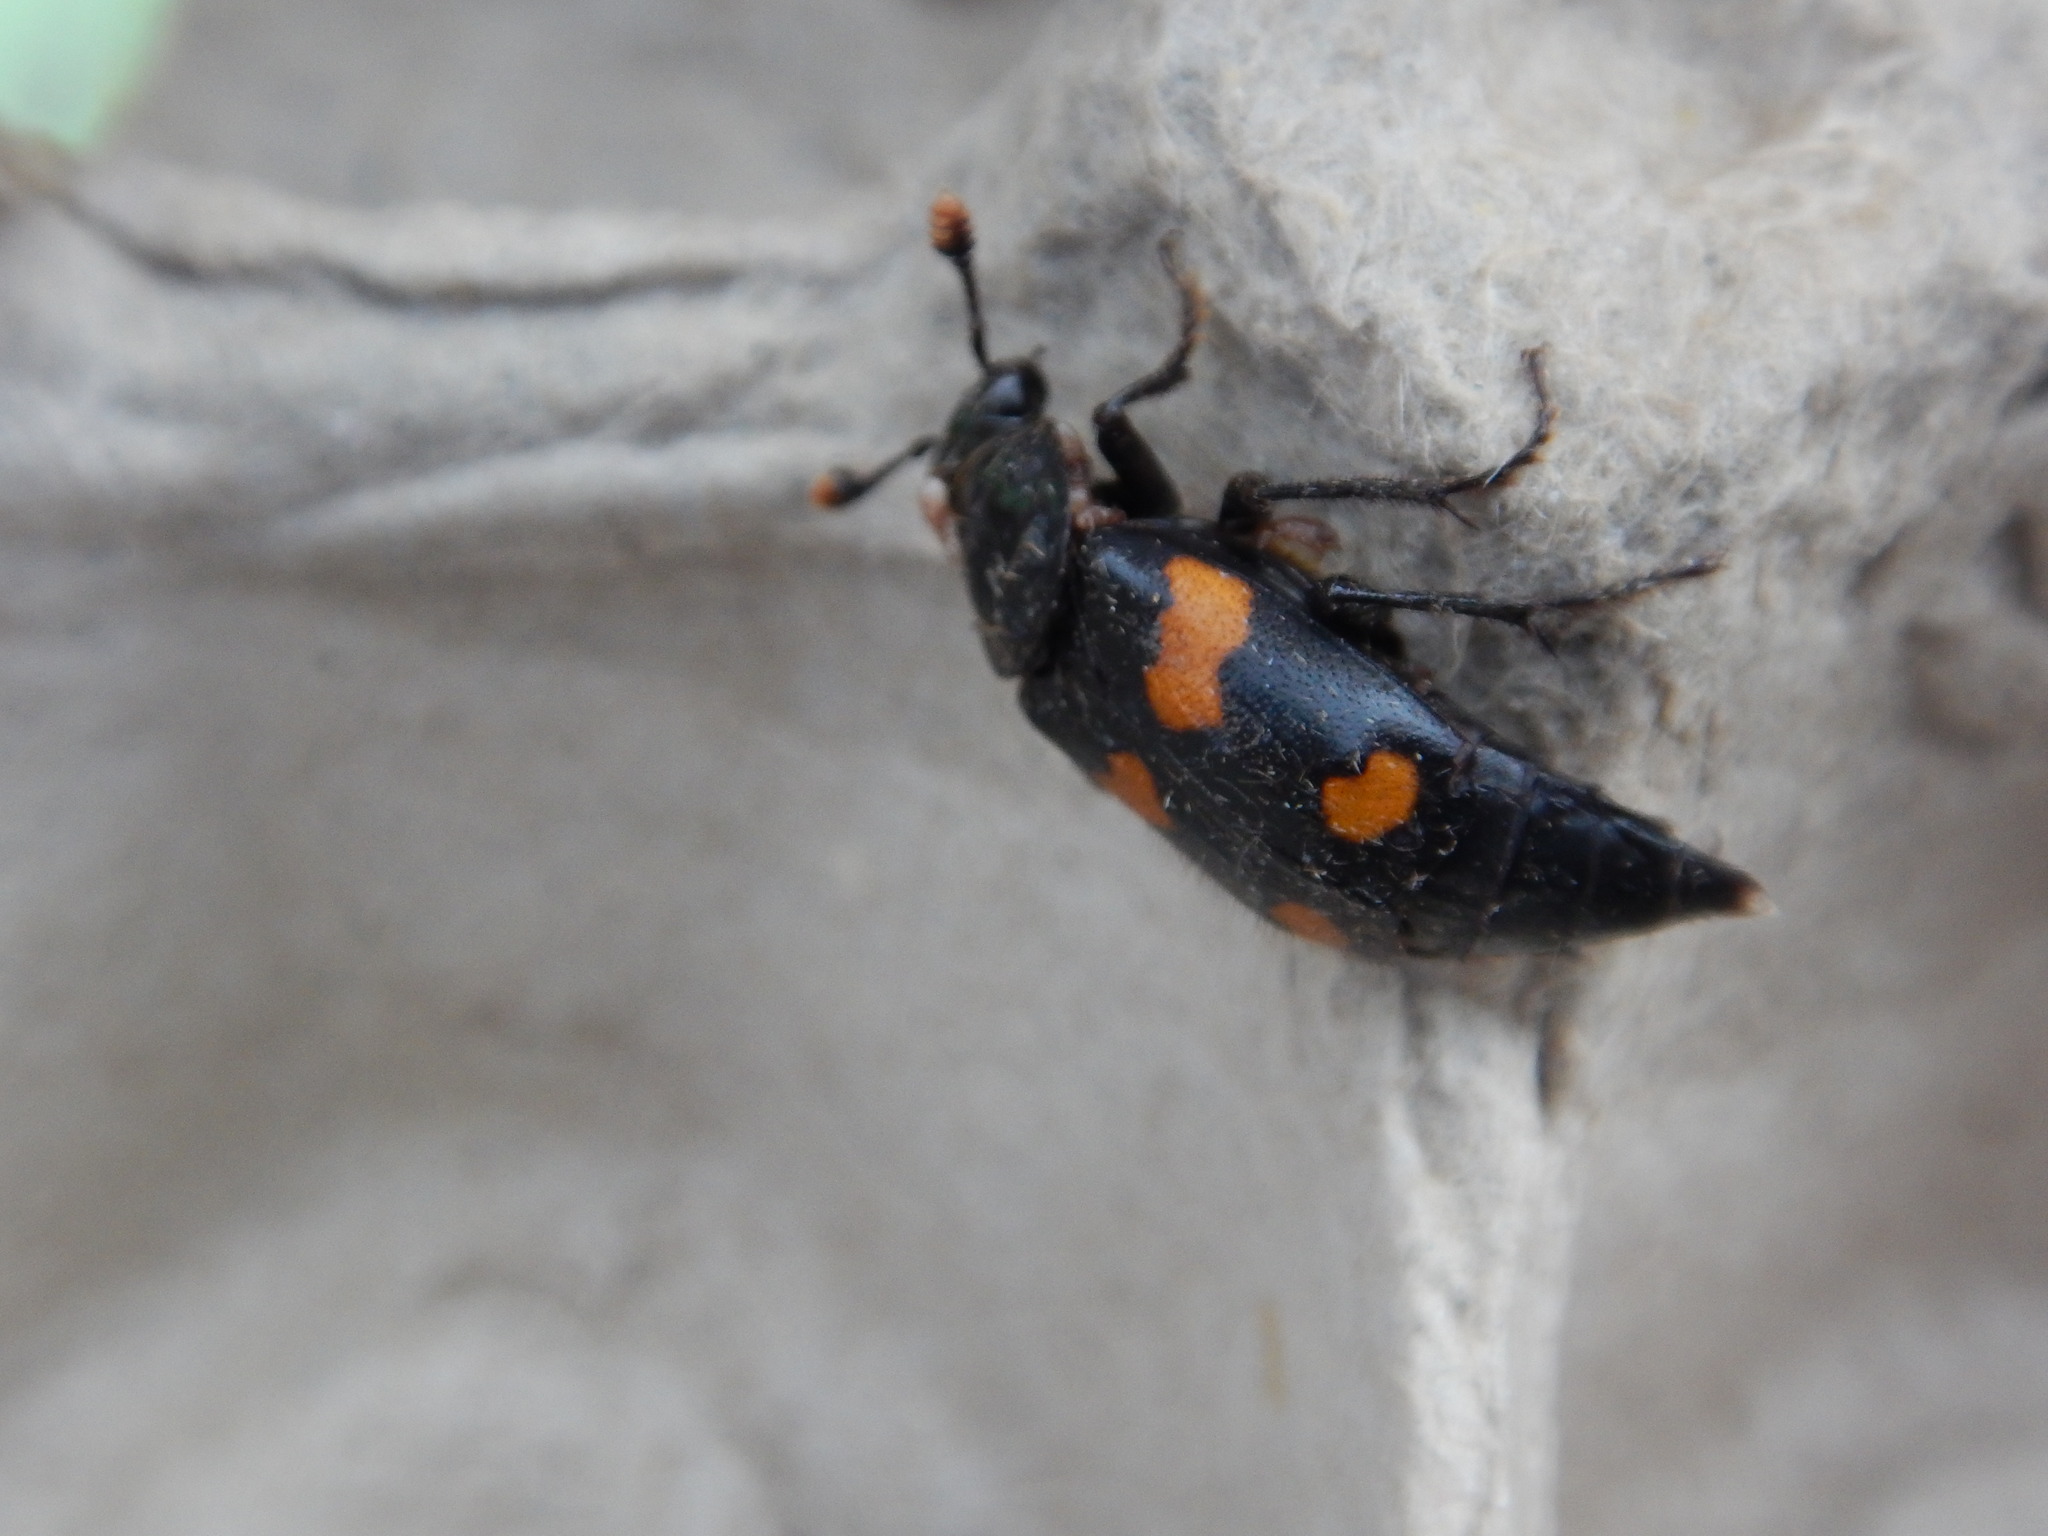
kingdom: Animalia
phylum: Arthropoda
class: Insecta
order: Coleoptera
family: Staphylinidae
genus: Nicrophorus
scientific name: Nicrophorus orbicollis
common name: Roundneck sexton beetle
